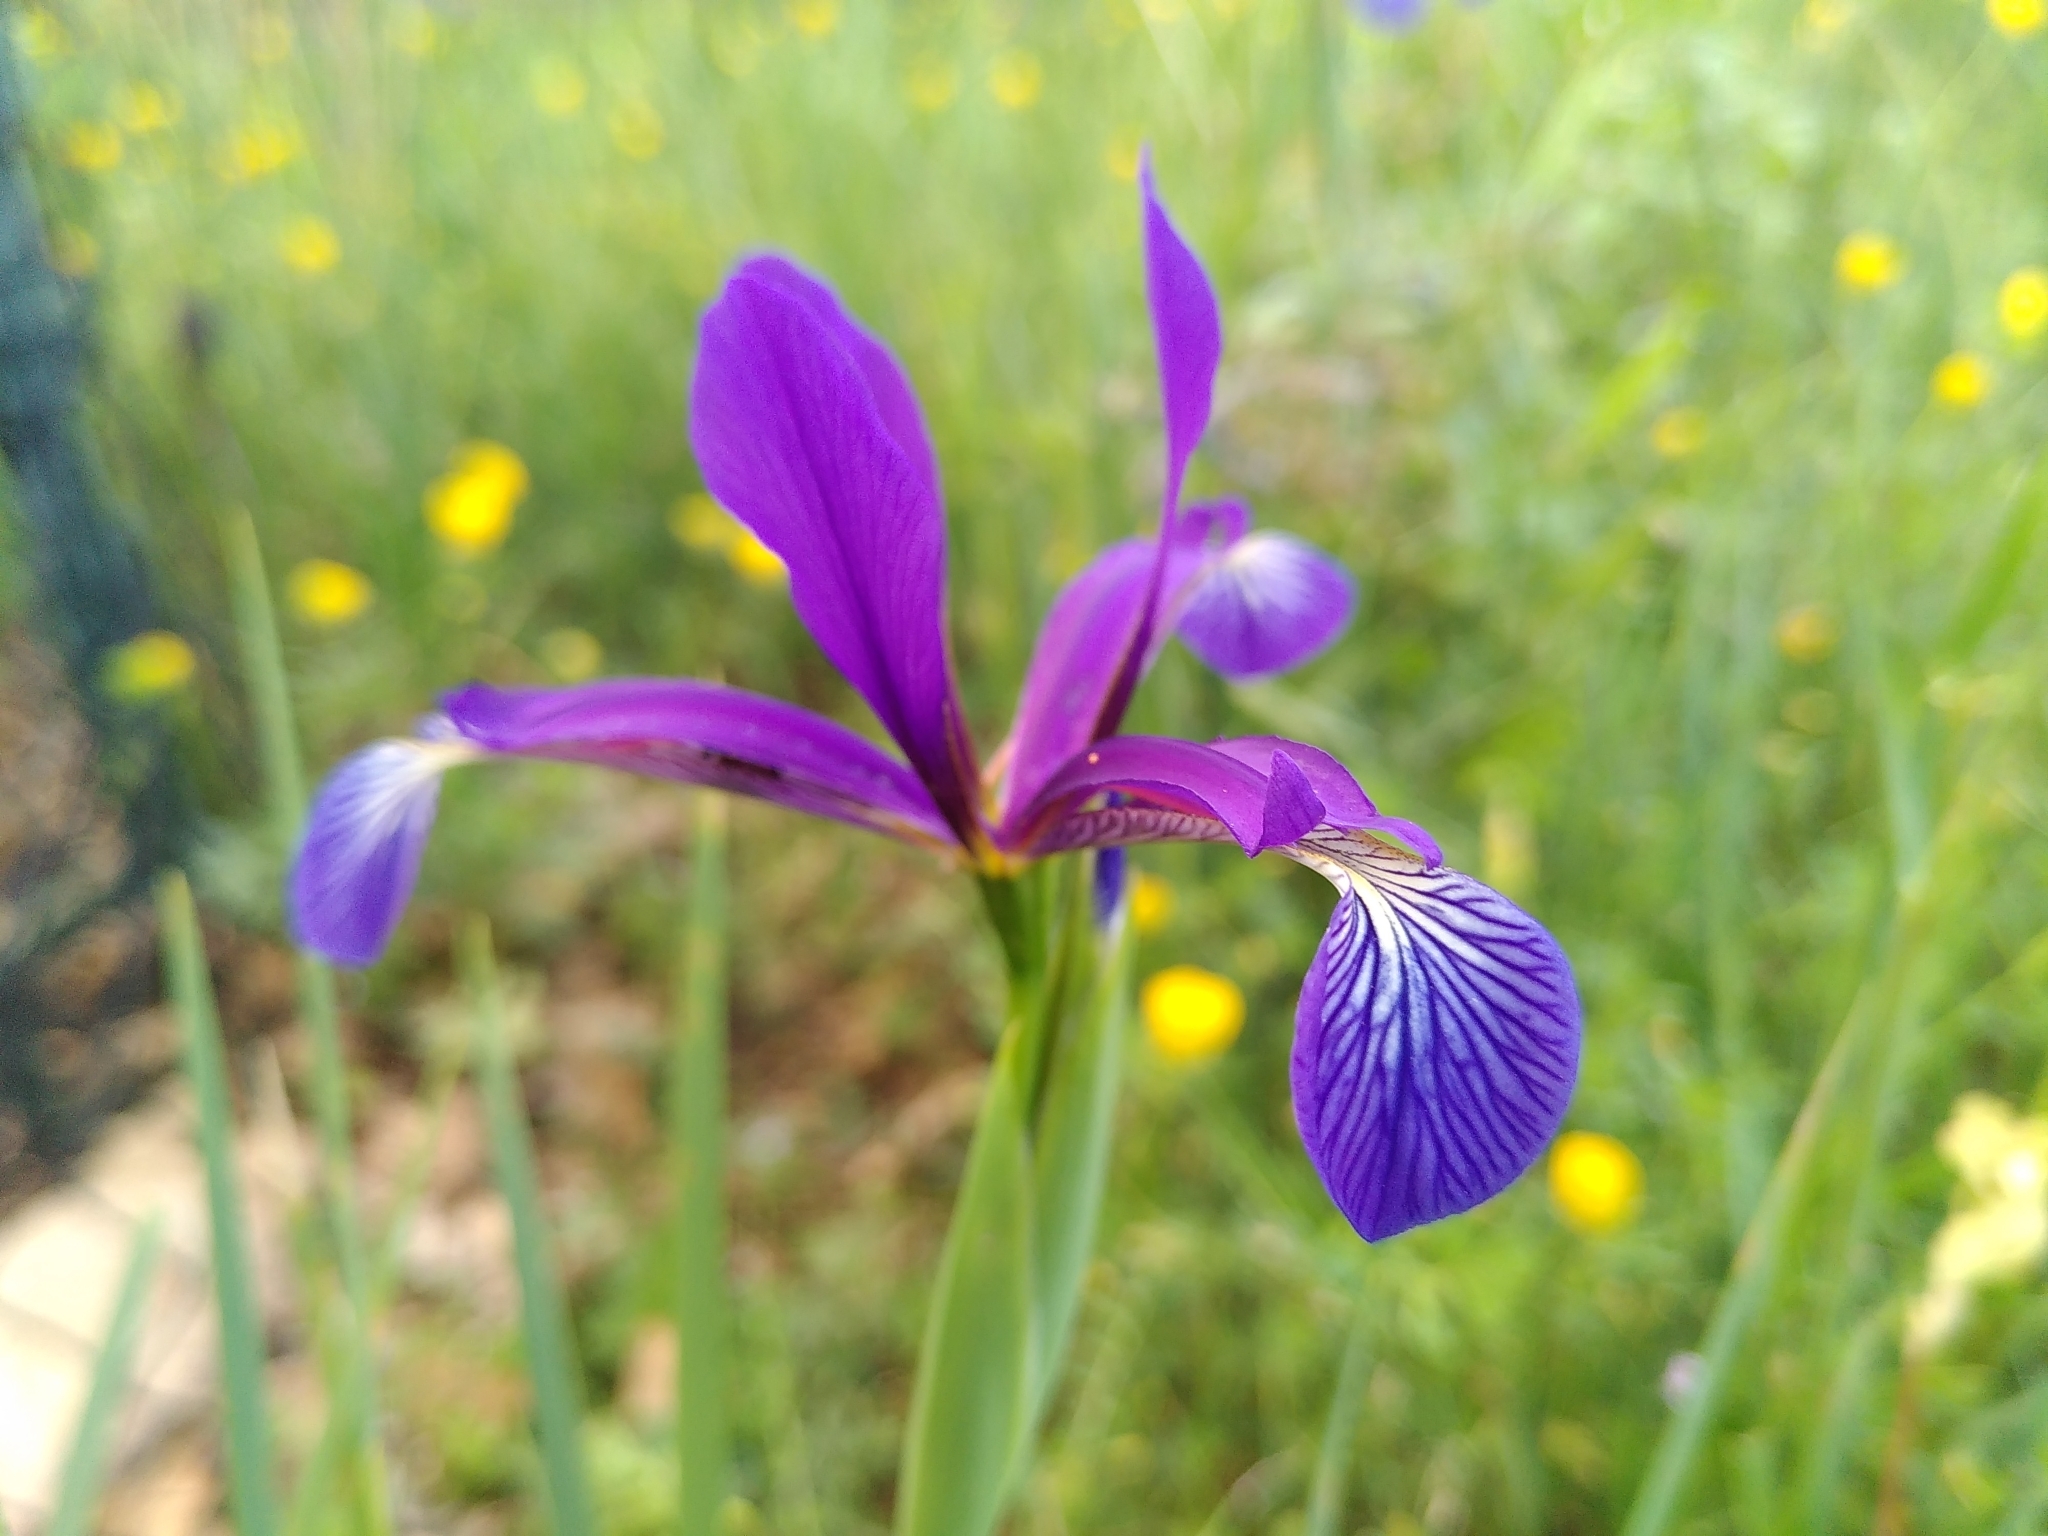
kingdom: Plantae
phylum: Tracheophyta
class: Liliopsida
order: Asparagales
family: Iridaceae
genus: Iris
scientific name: Iris reichenbachiana
